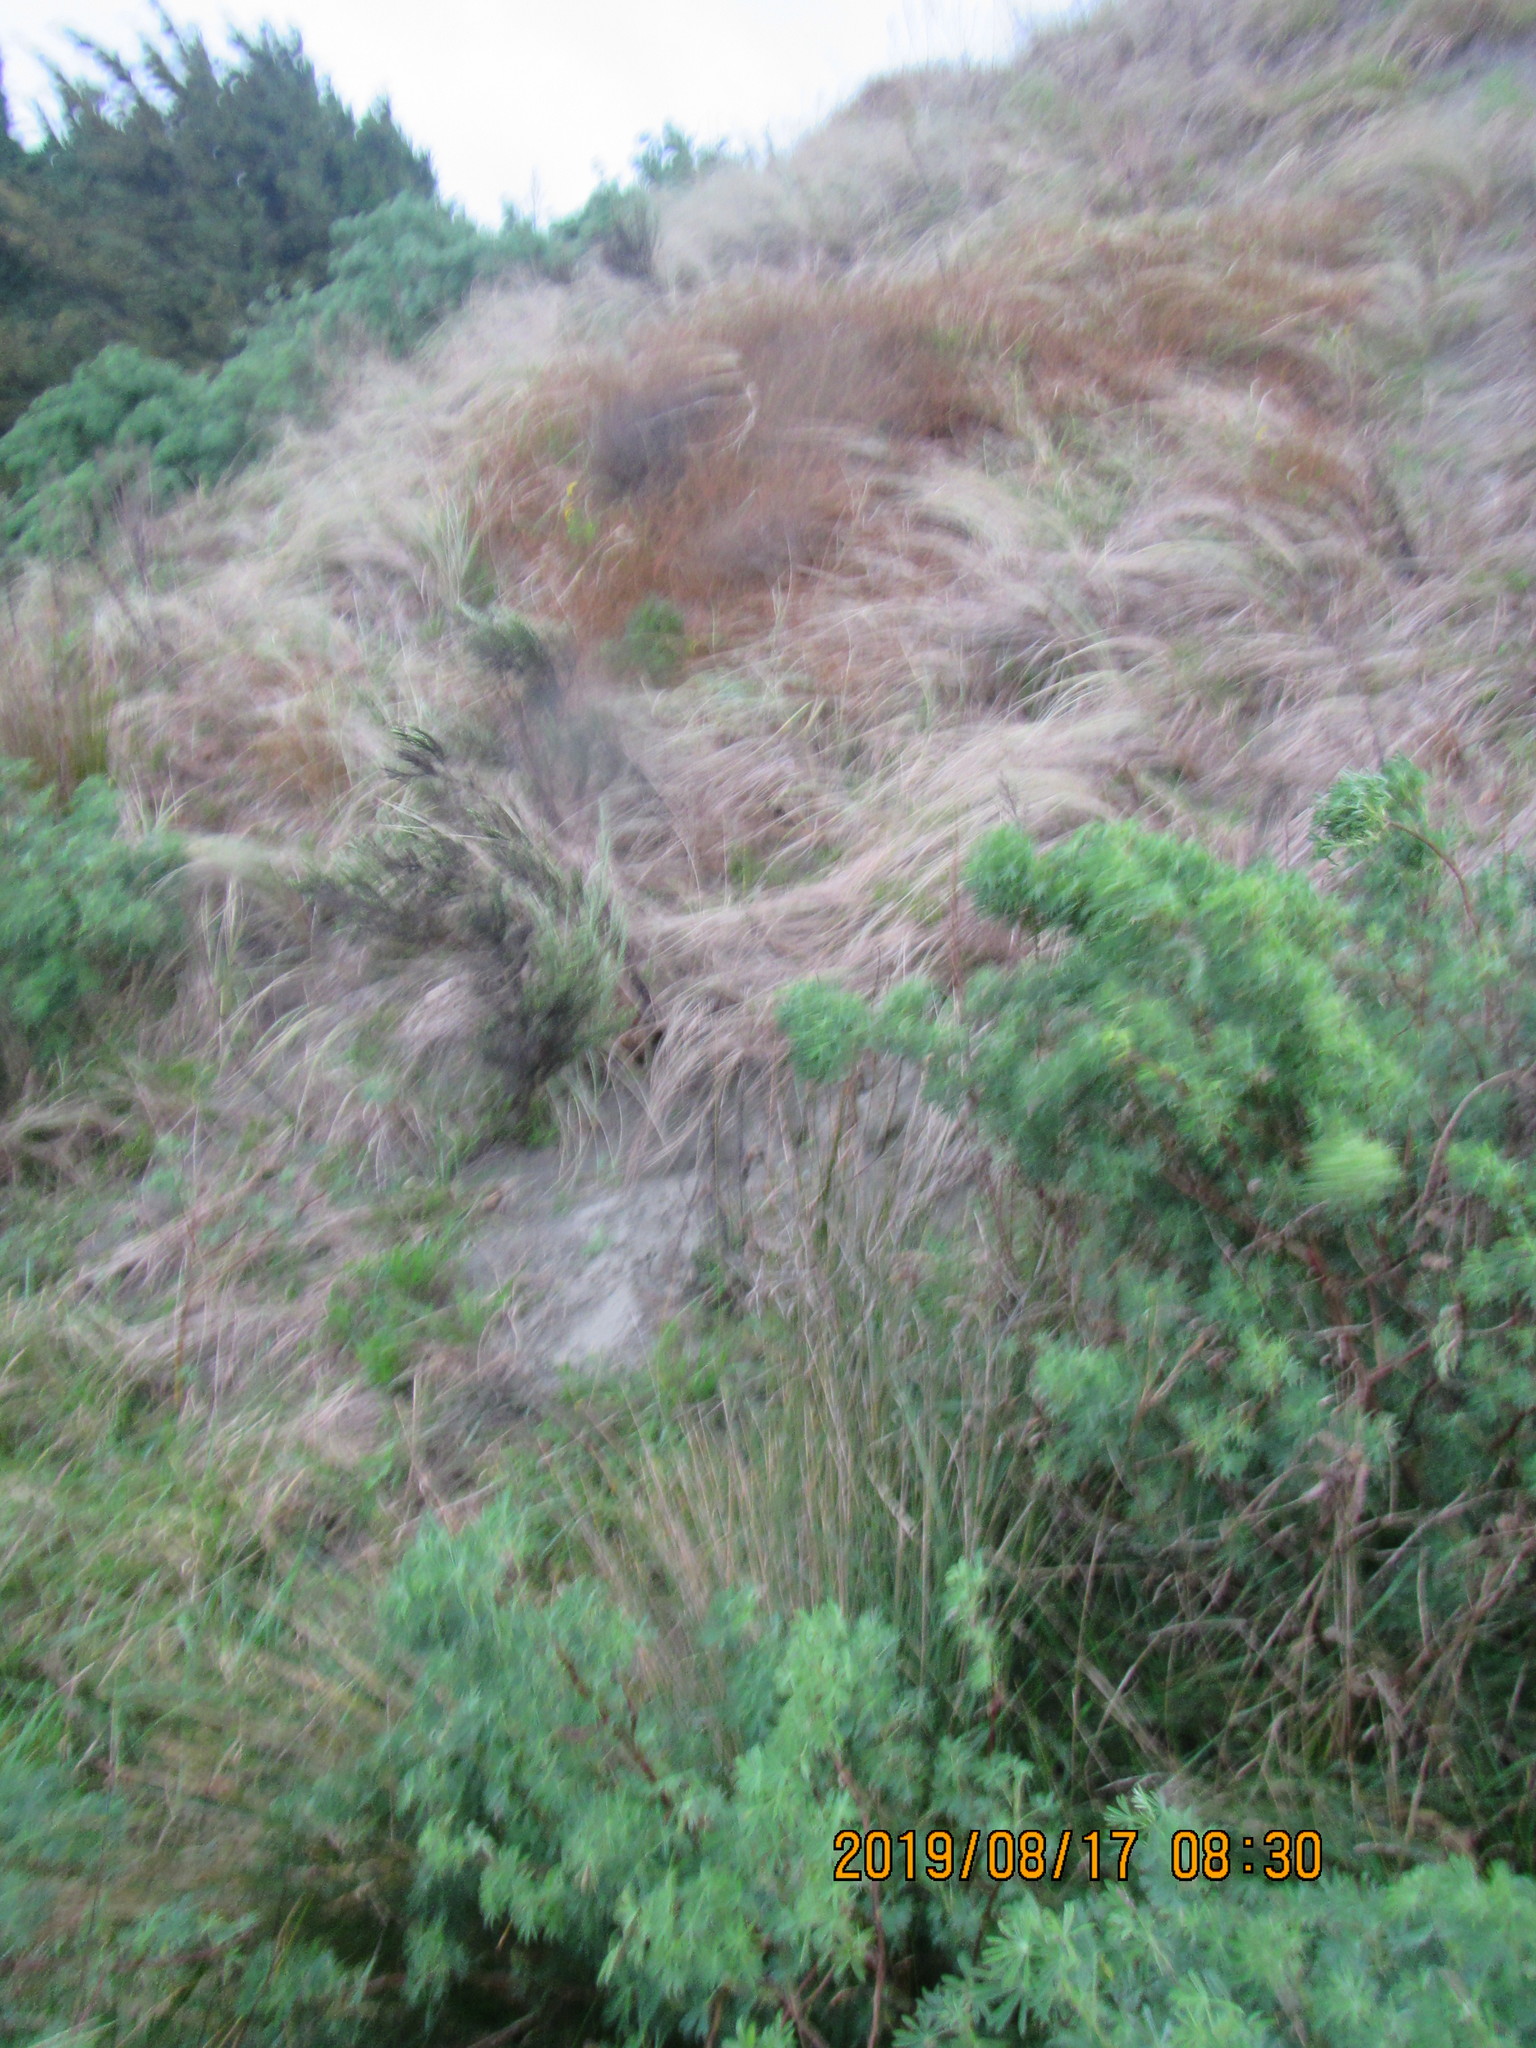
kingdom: Plantae
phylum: Tracheophyta
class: Magnoliopsida
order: Asterales
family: Asteraceae
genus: Ozothamnus
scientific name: Ozothamnus leptophyllus
